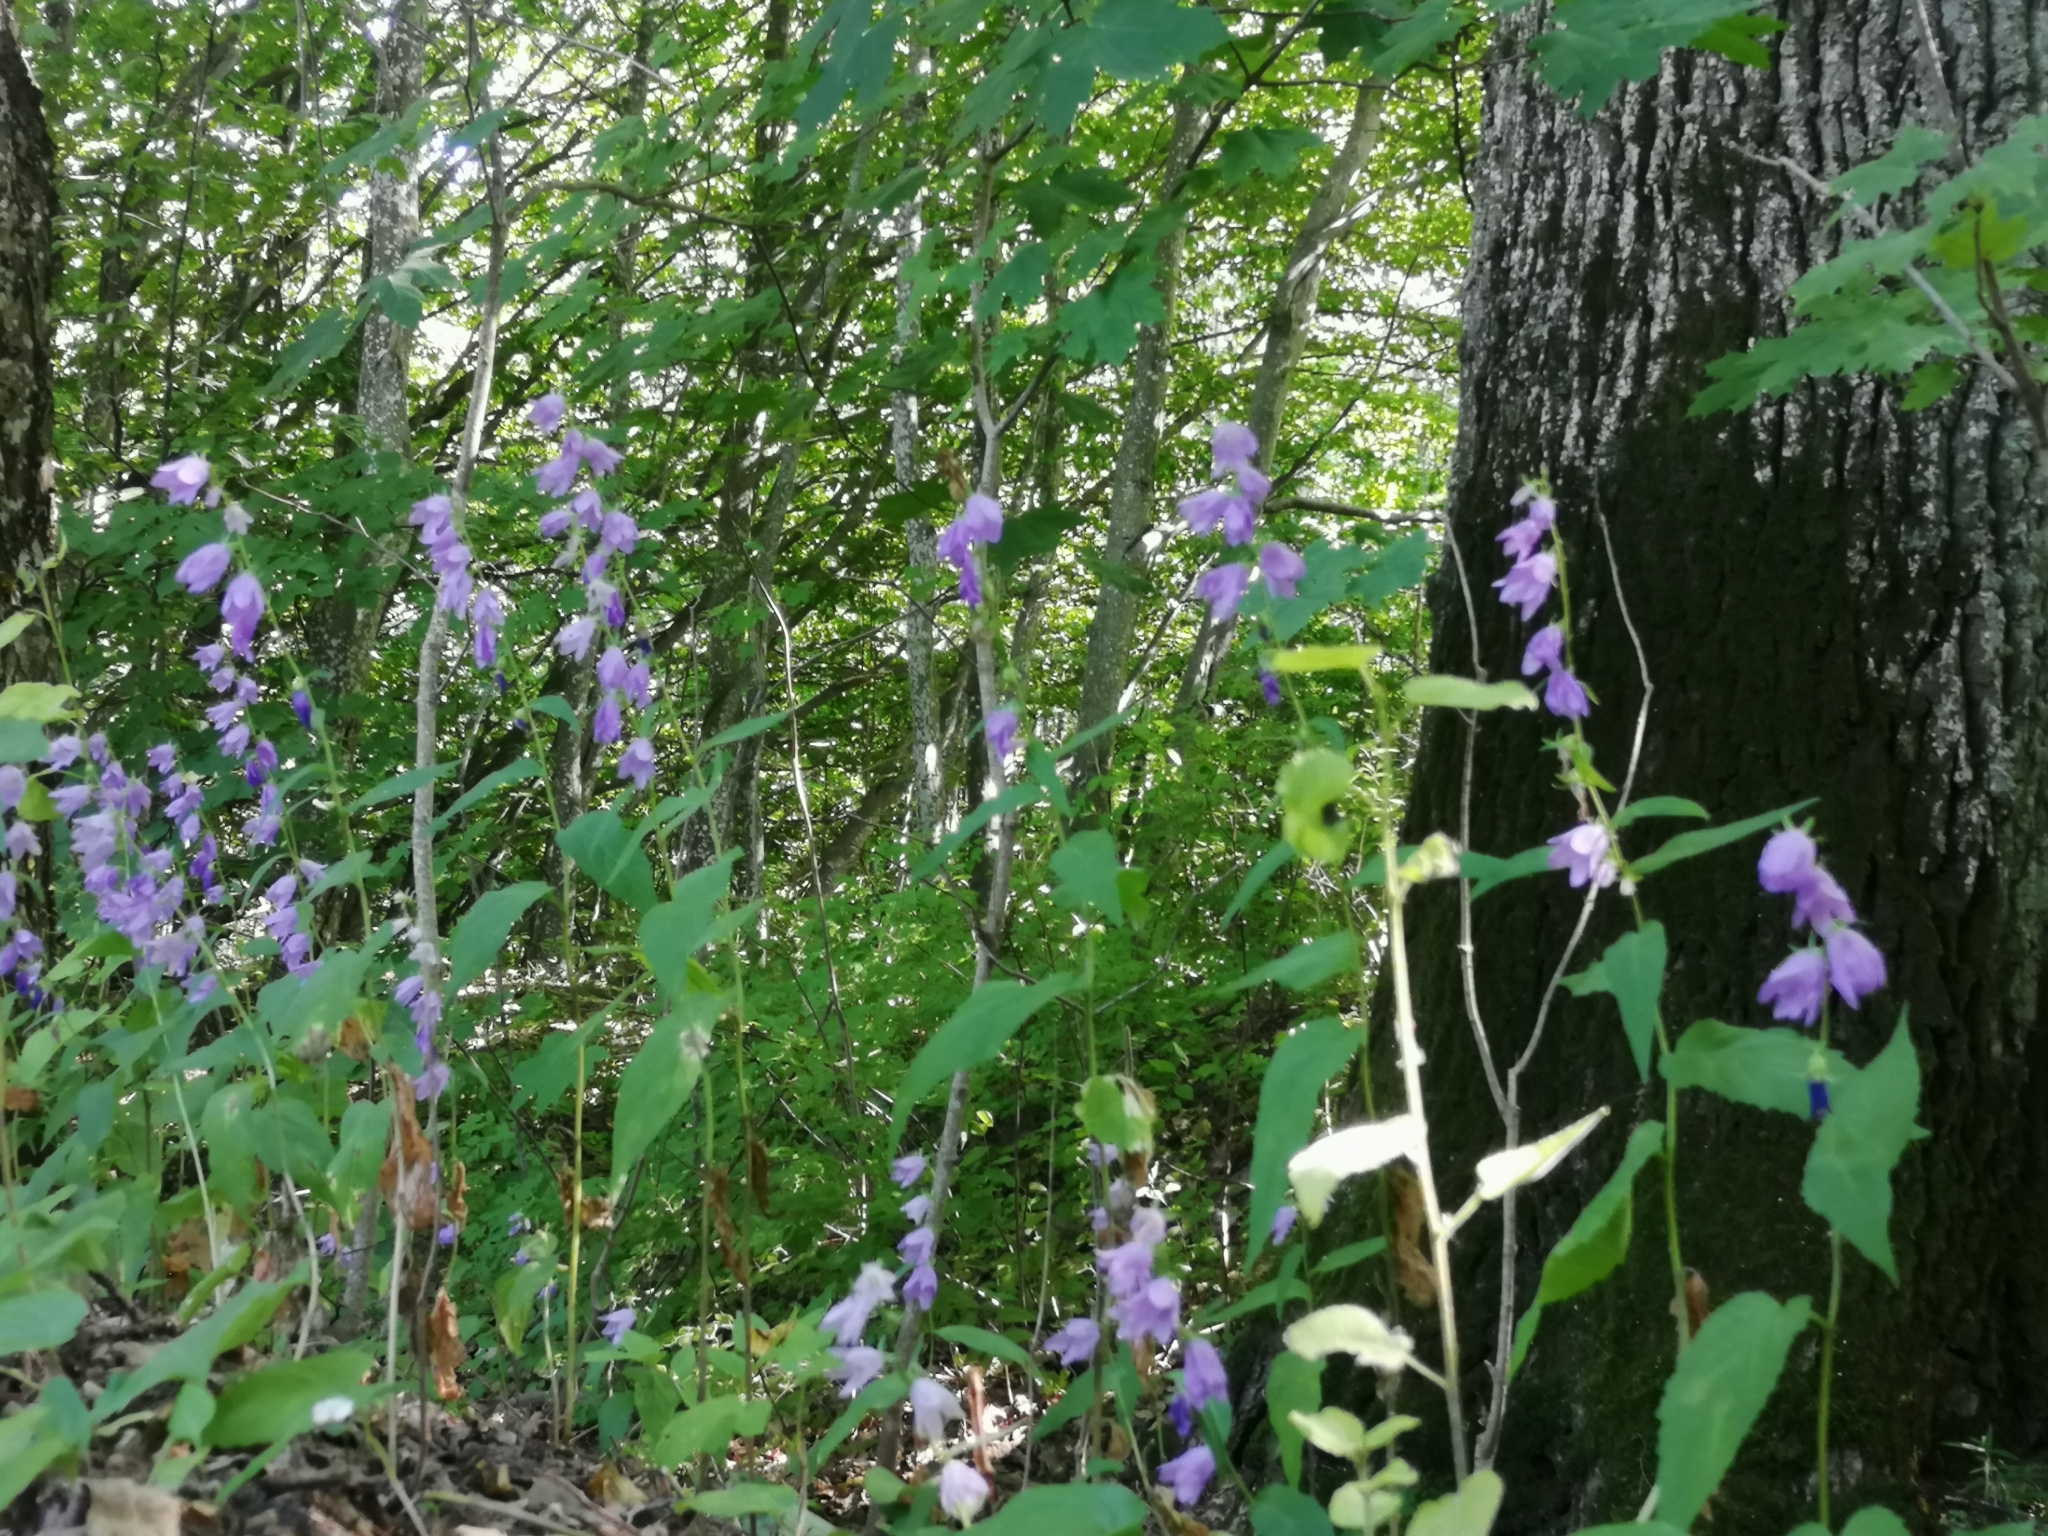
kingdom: Plantae
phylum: Tracheophyta
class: Magnoliopsida
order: Asterales
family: Campanulaceae
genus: Campanula
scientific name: Campanula rapunculoides
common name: Creeping bellflower
